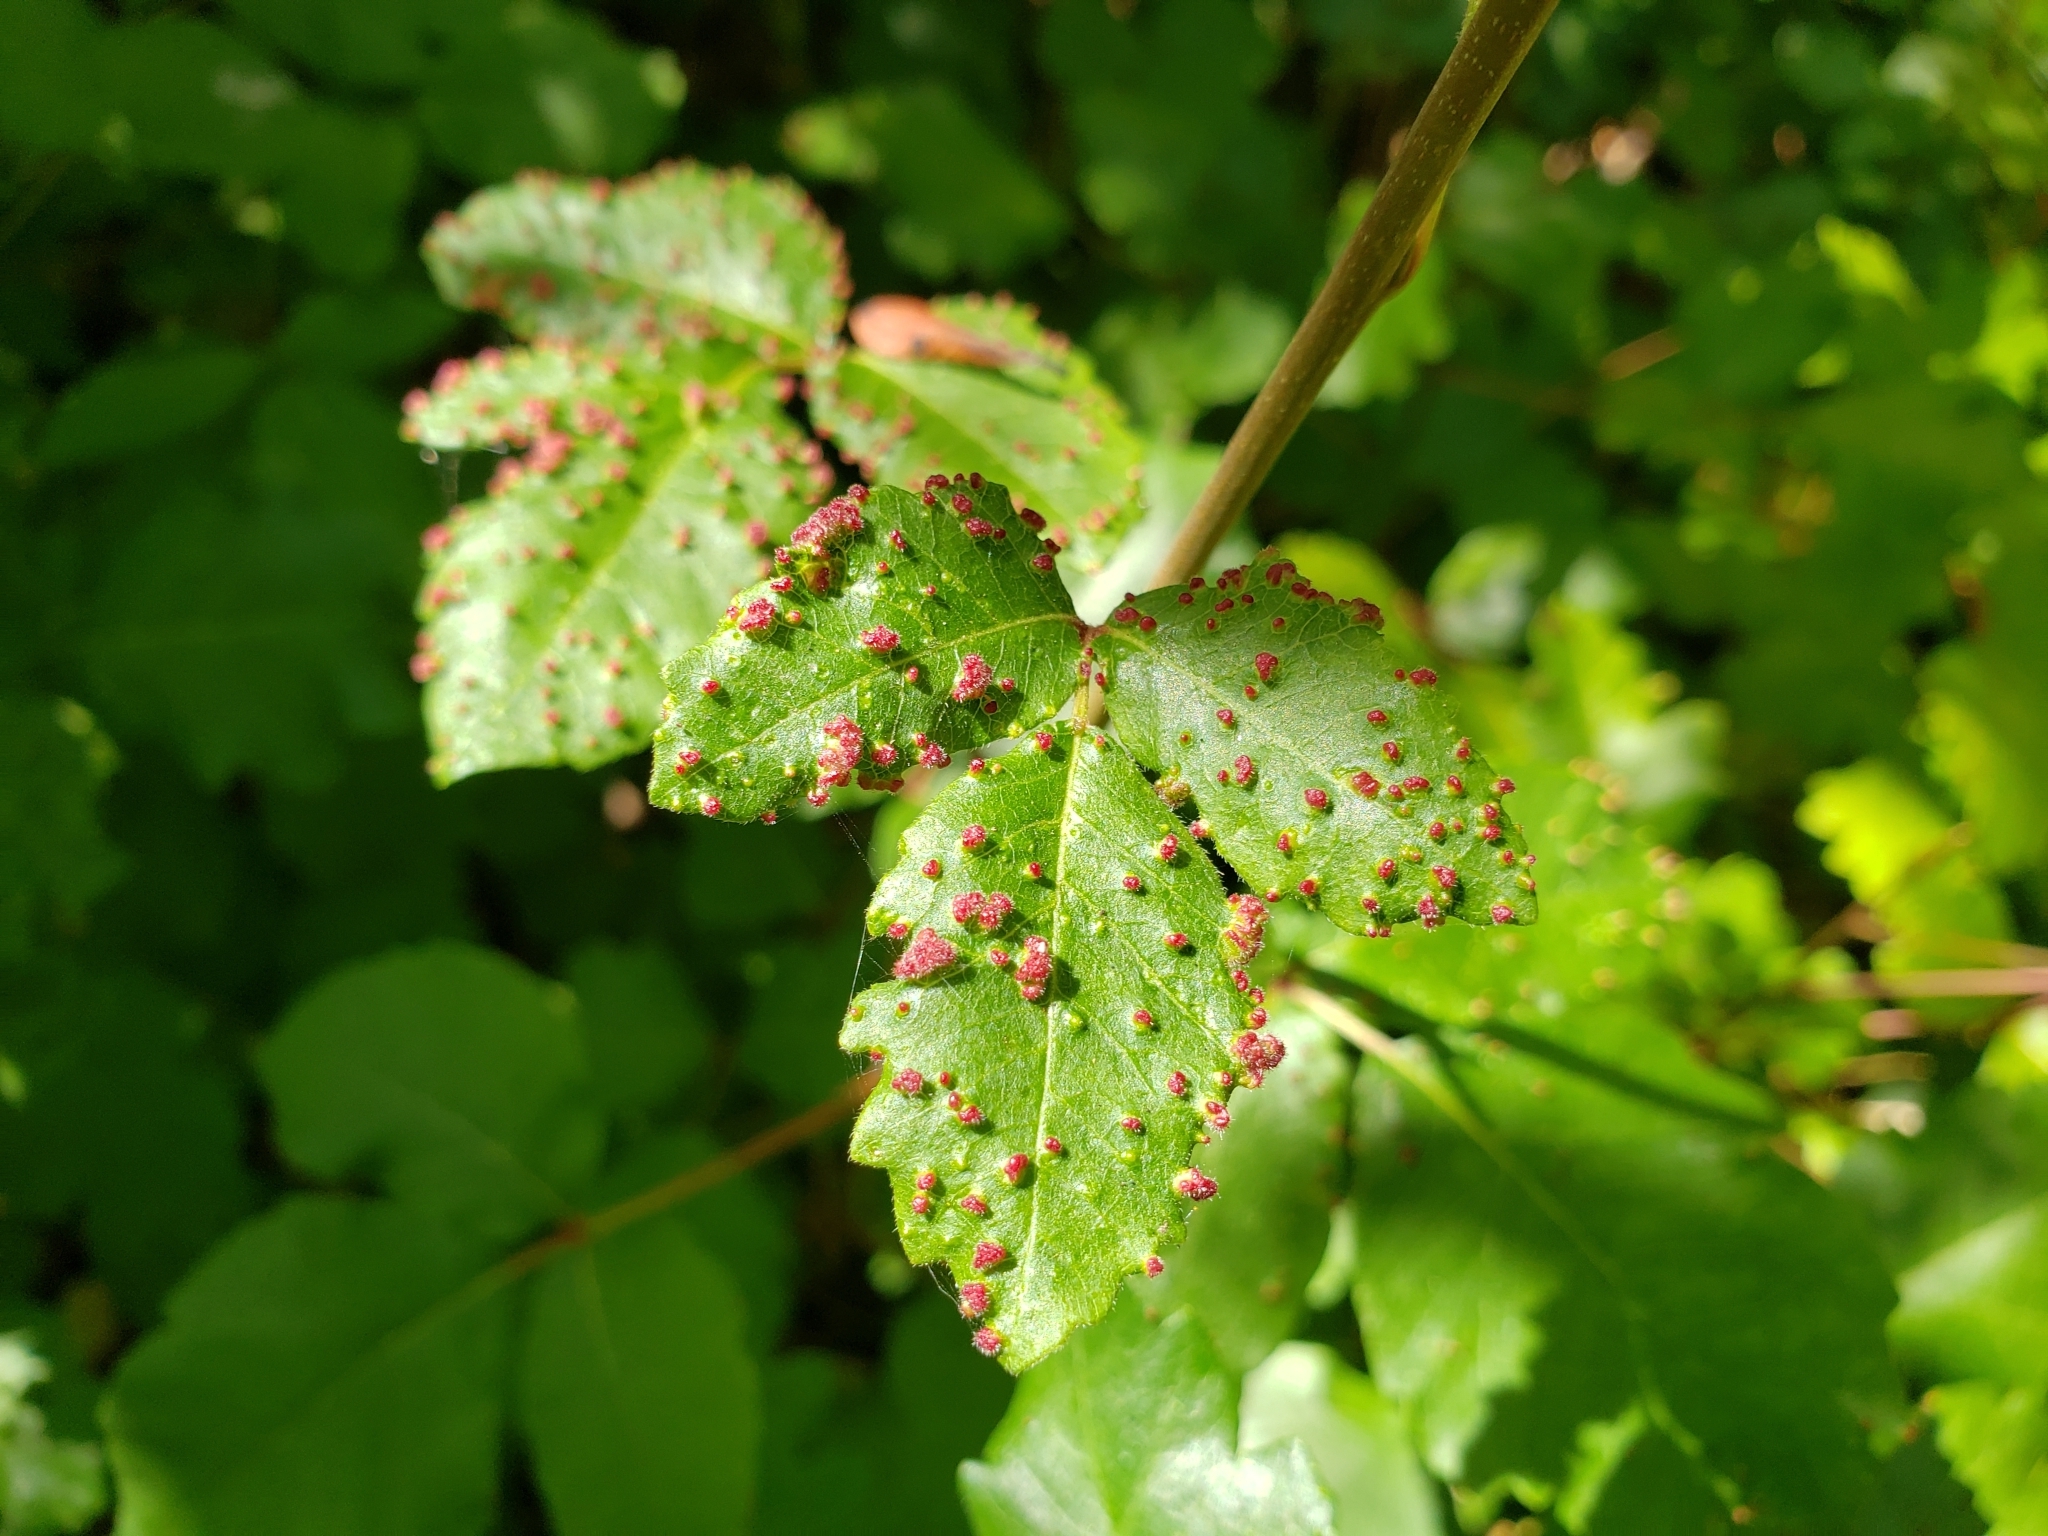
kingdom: Animalia
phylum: Arthropoda
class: Arachnida
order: Trombidiformes
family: Eriophyidae
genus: Aculops
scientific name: Aculops
